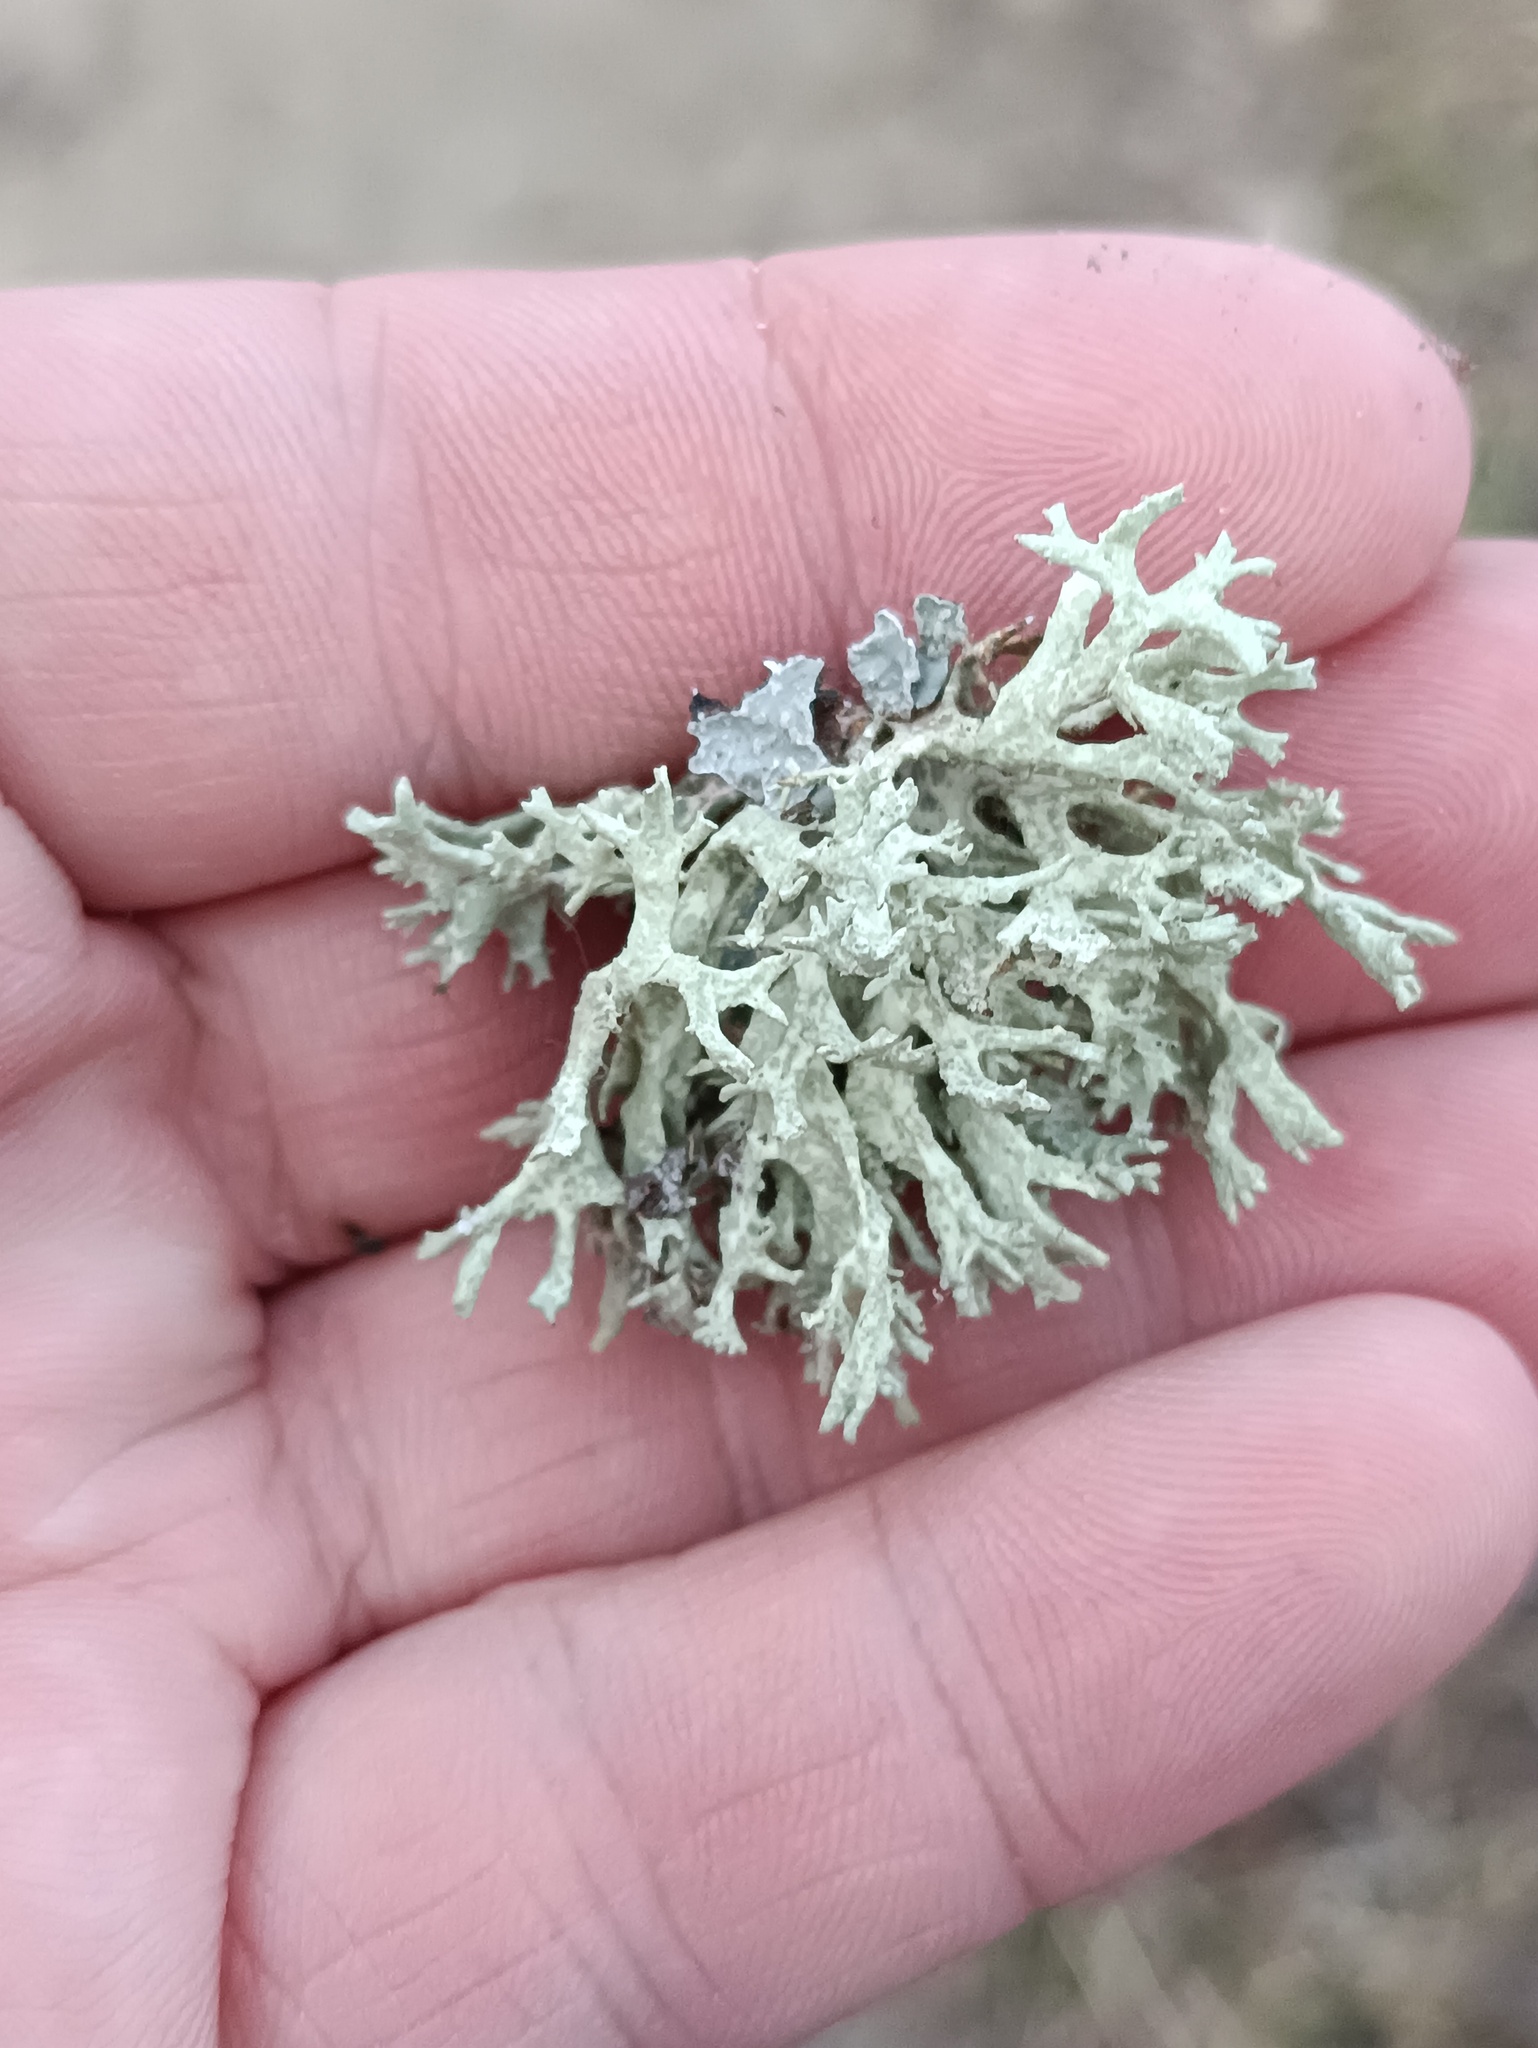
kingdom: Fungi
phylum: Ascomycota
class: Lecanoromycetes
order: Lecanorales
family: Parmeliaceae
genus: Evernia
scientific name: Evernia prunastri
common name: Oak moss
